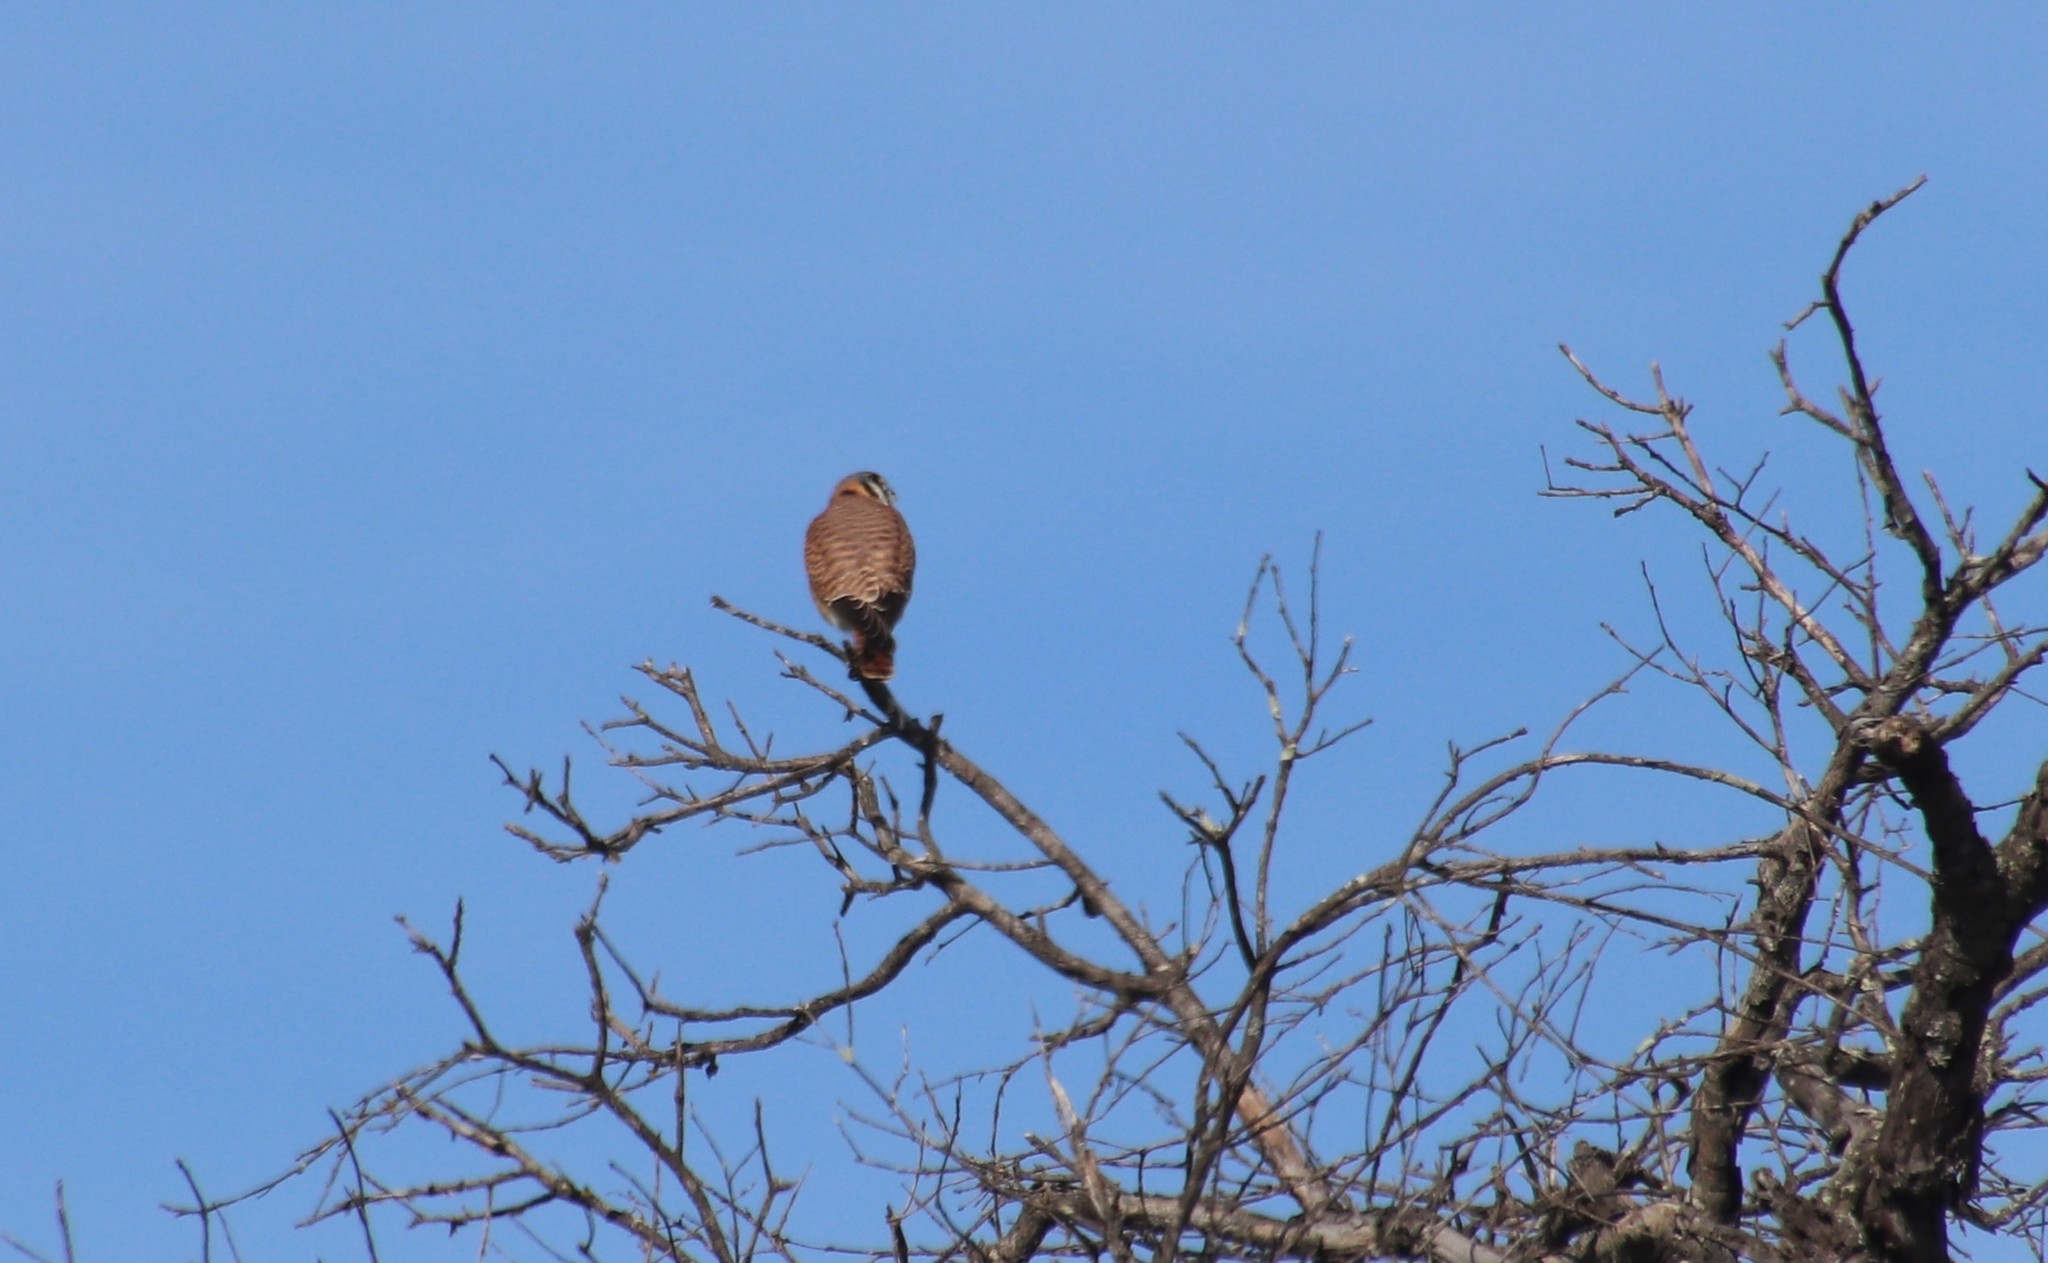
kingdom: Animalia
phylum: Chordata
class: Aves
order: Falconiformes
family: Falconidae
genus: Falco
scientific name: Falco sparverius
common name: American kestrel
